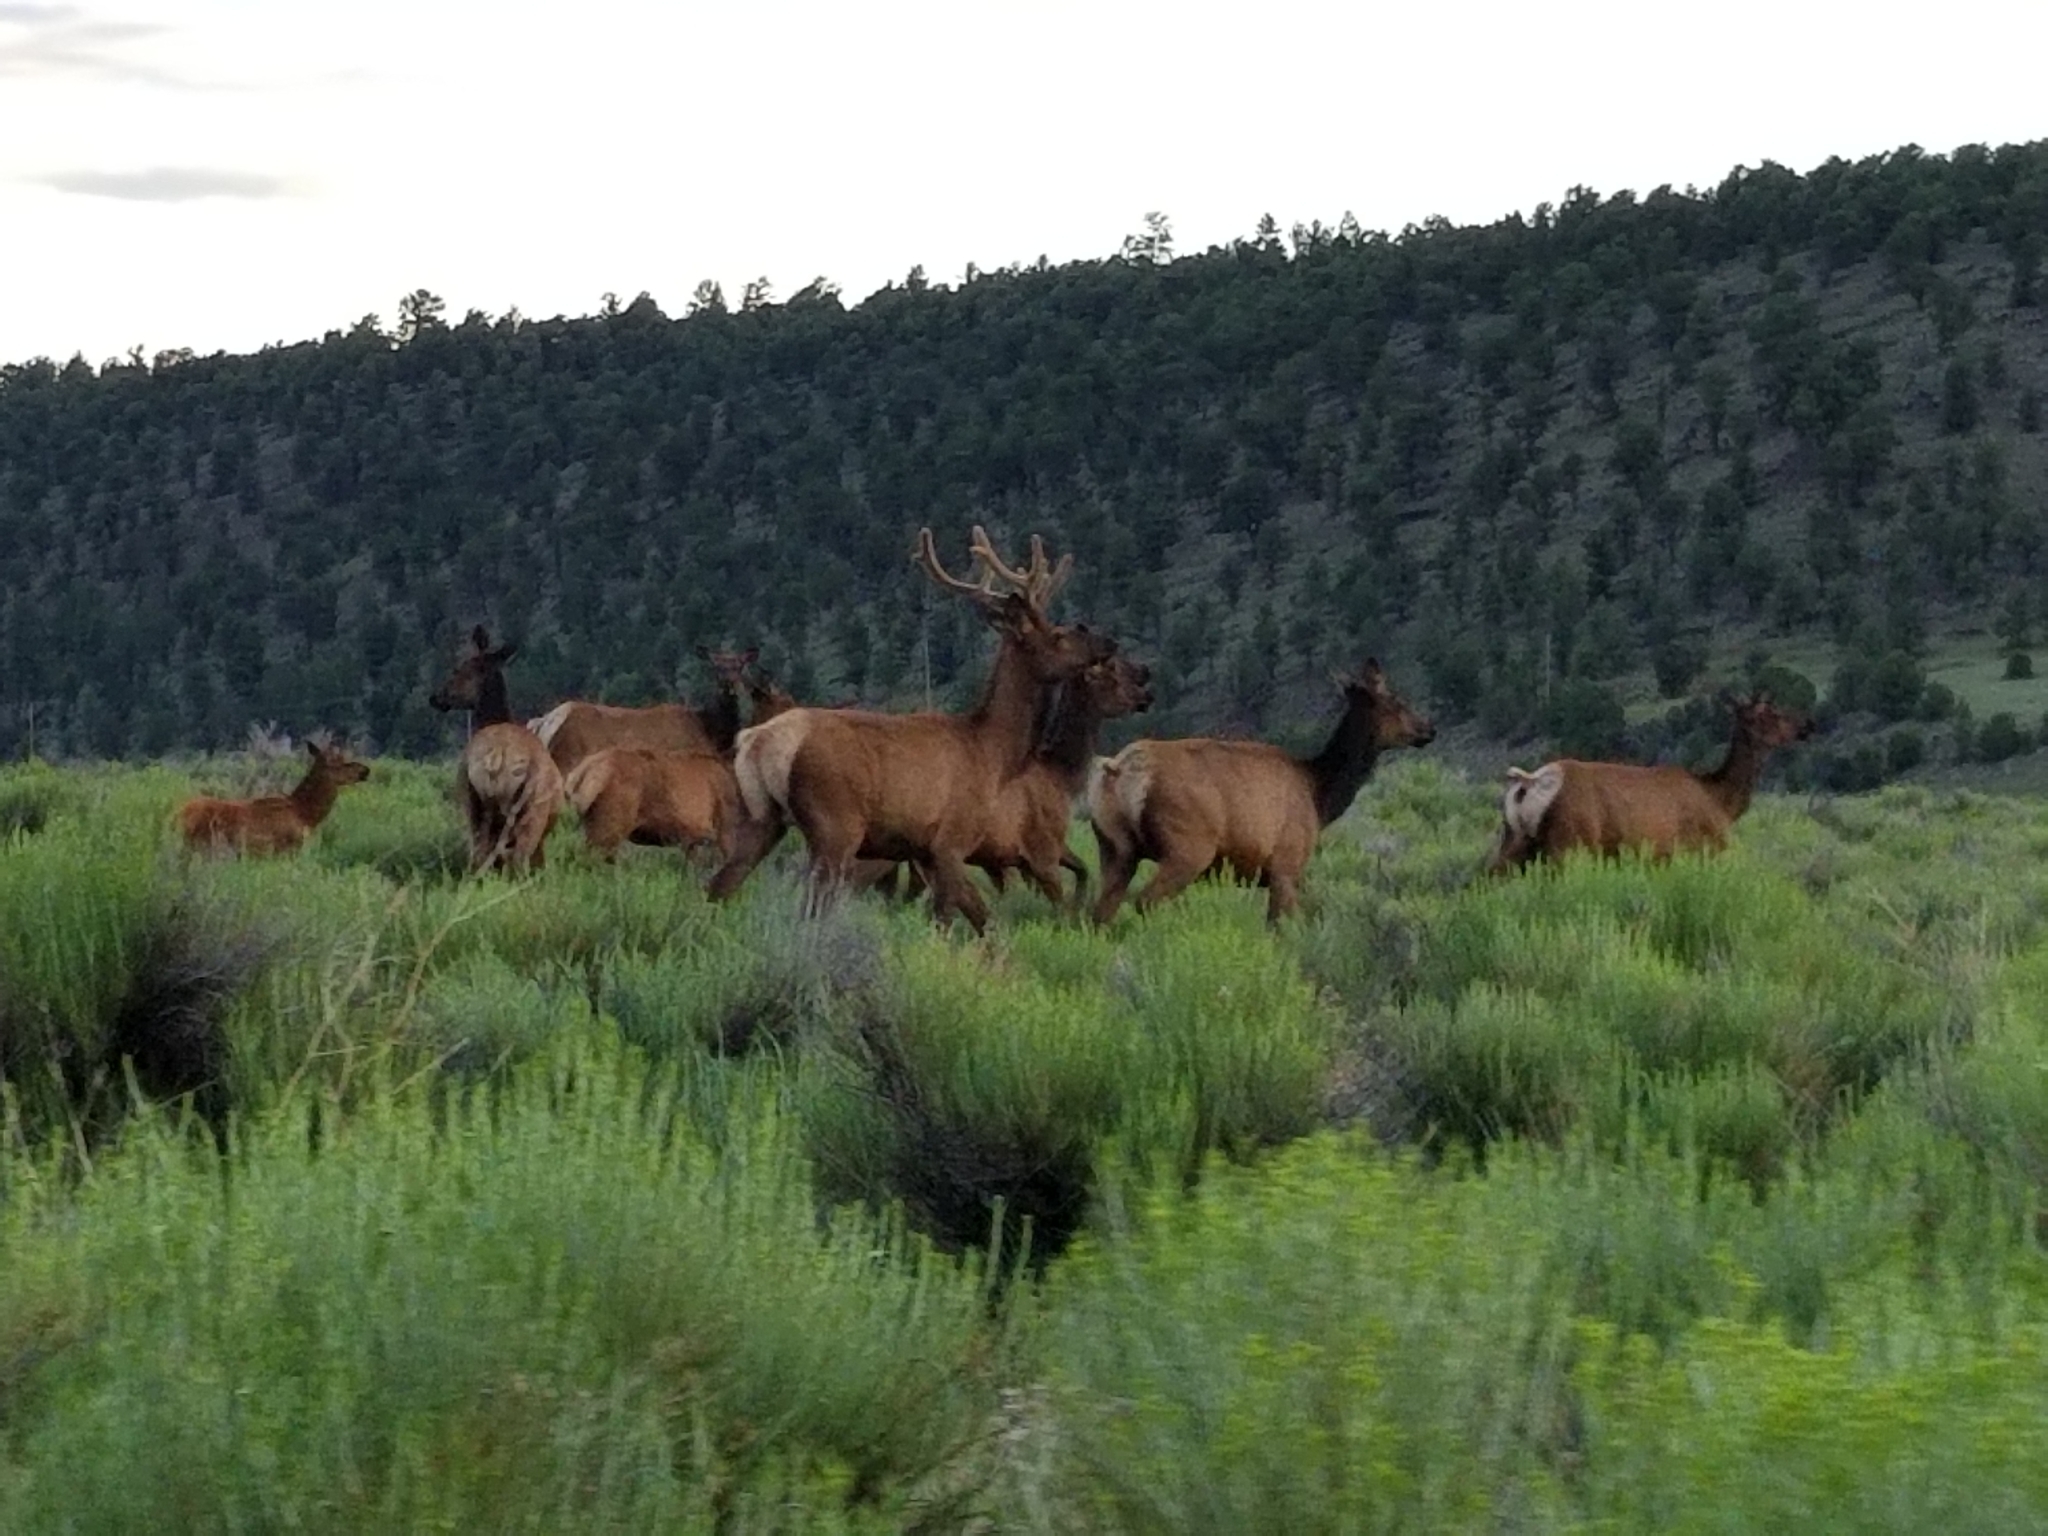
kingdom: Animalia
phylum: Chordata
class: Mammalia
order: Artiodactyla
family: Cervidae
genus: Cervus
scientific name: Cervus elaphus
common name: Red deer
